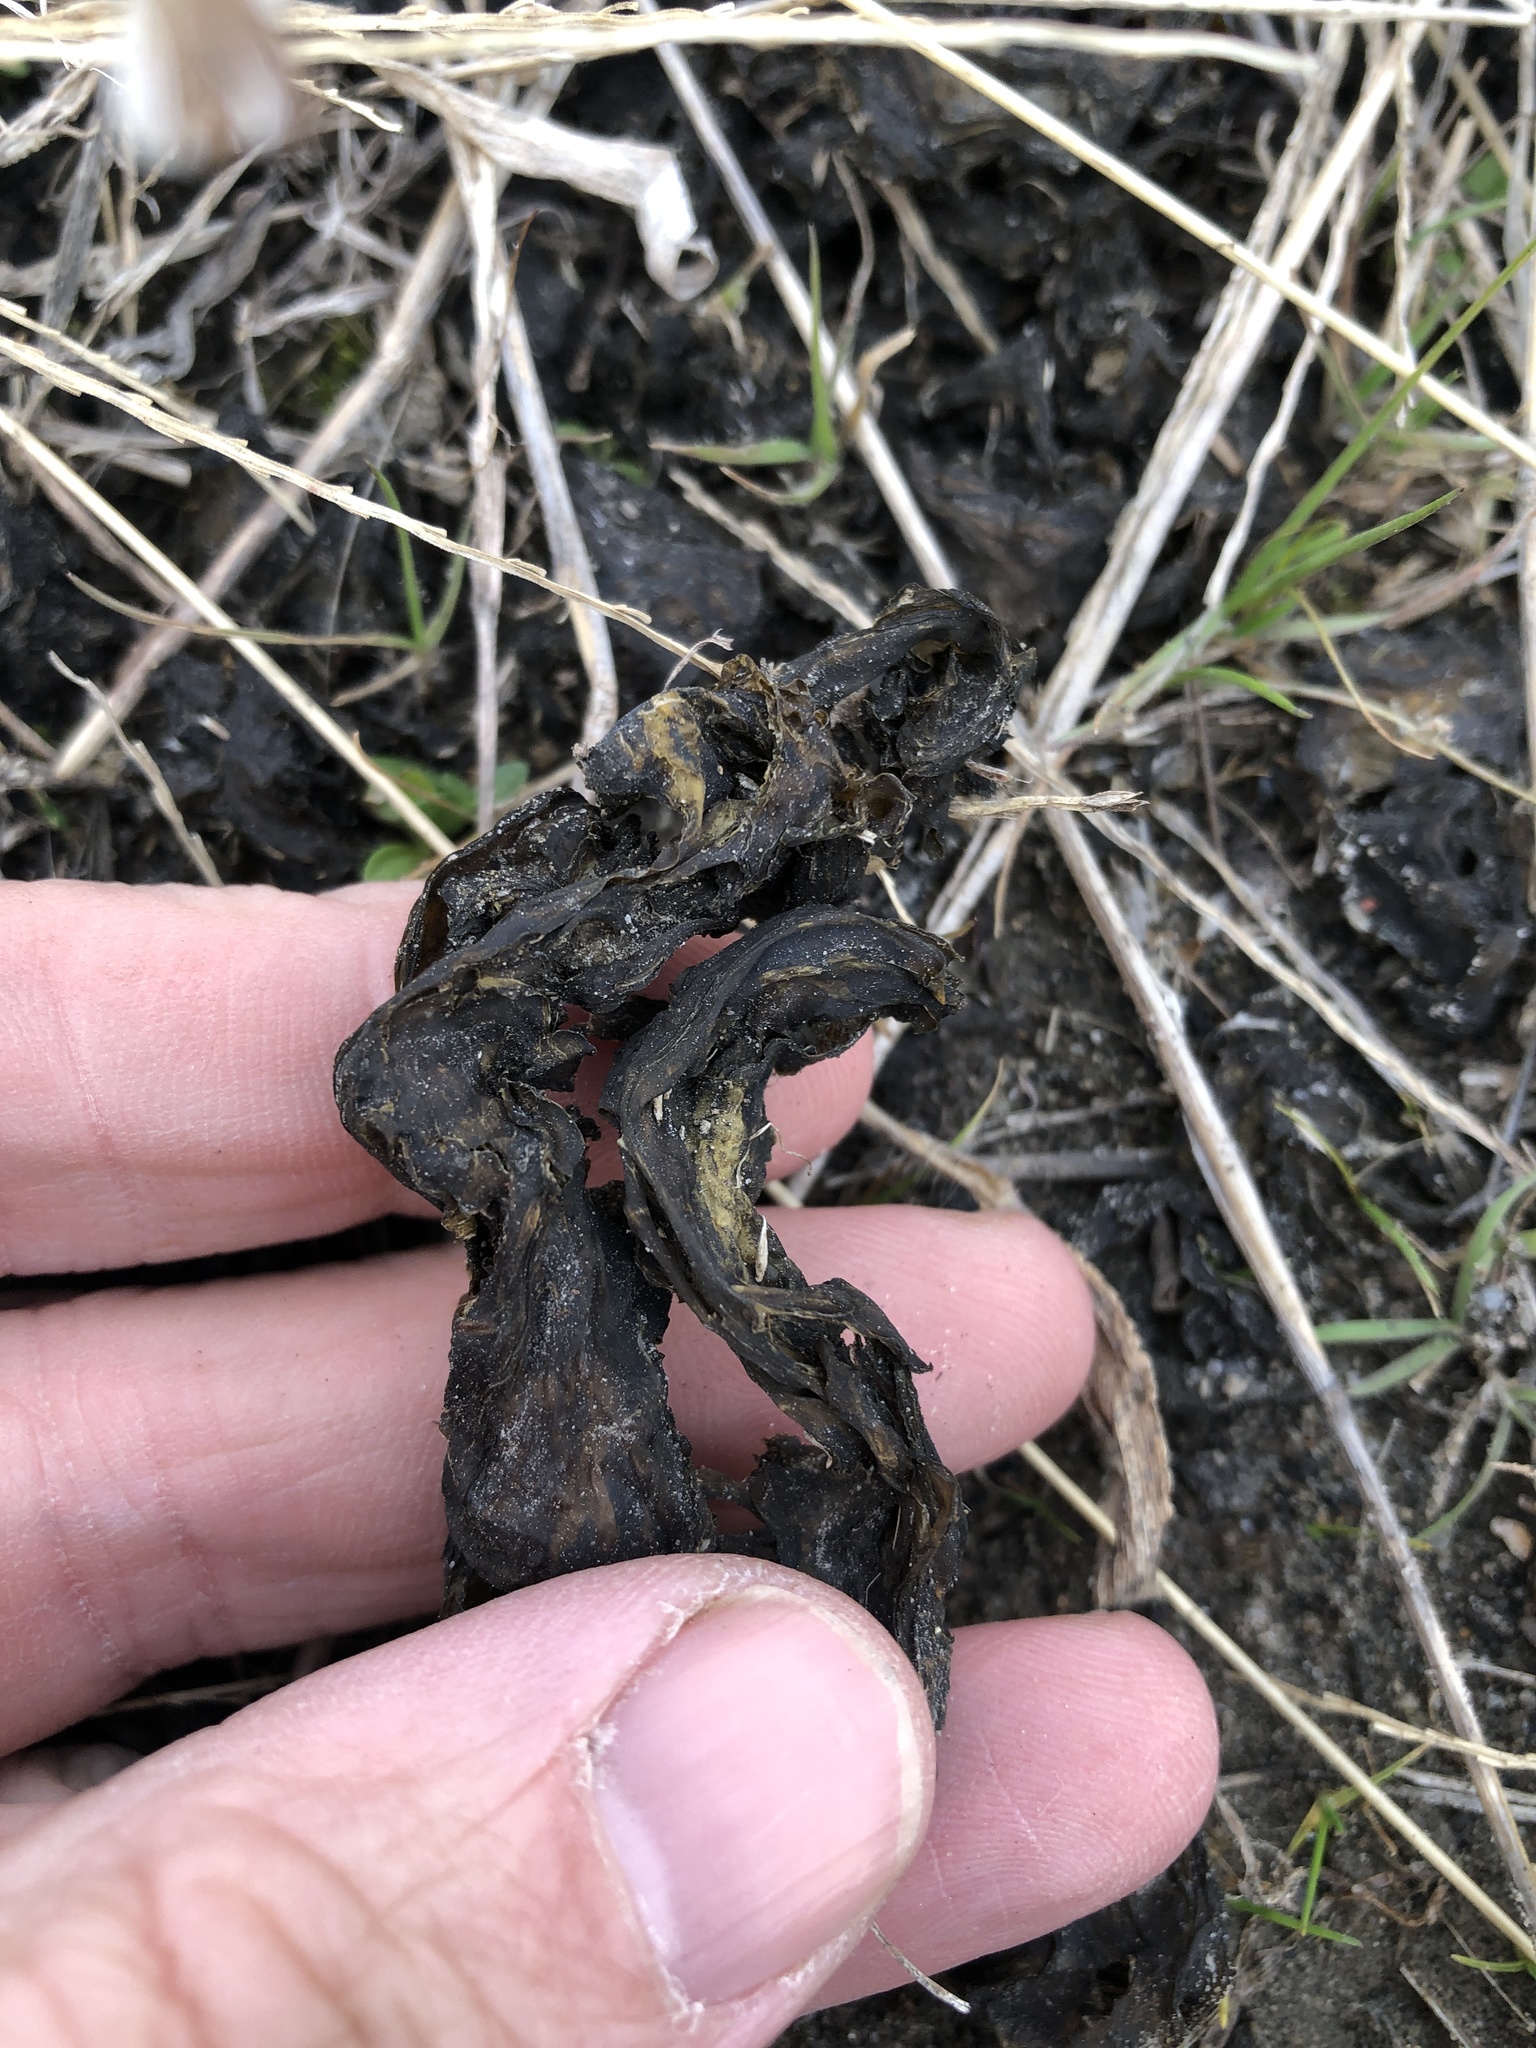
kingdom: Bacteria
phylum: Cyanobacteria
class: Cyanobacteriia
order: Cyanobacteriales
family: Nostocaceae
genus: Nostoc
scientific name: Nostoc commune
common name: Star jelly
